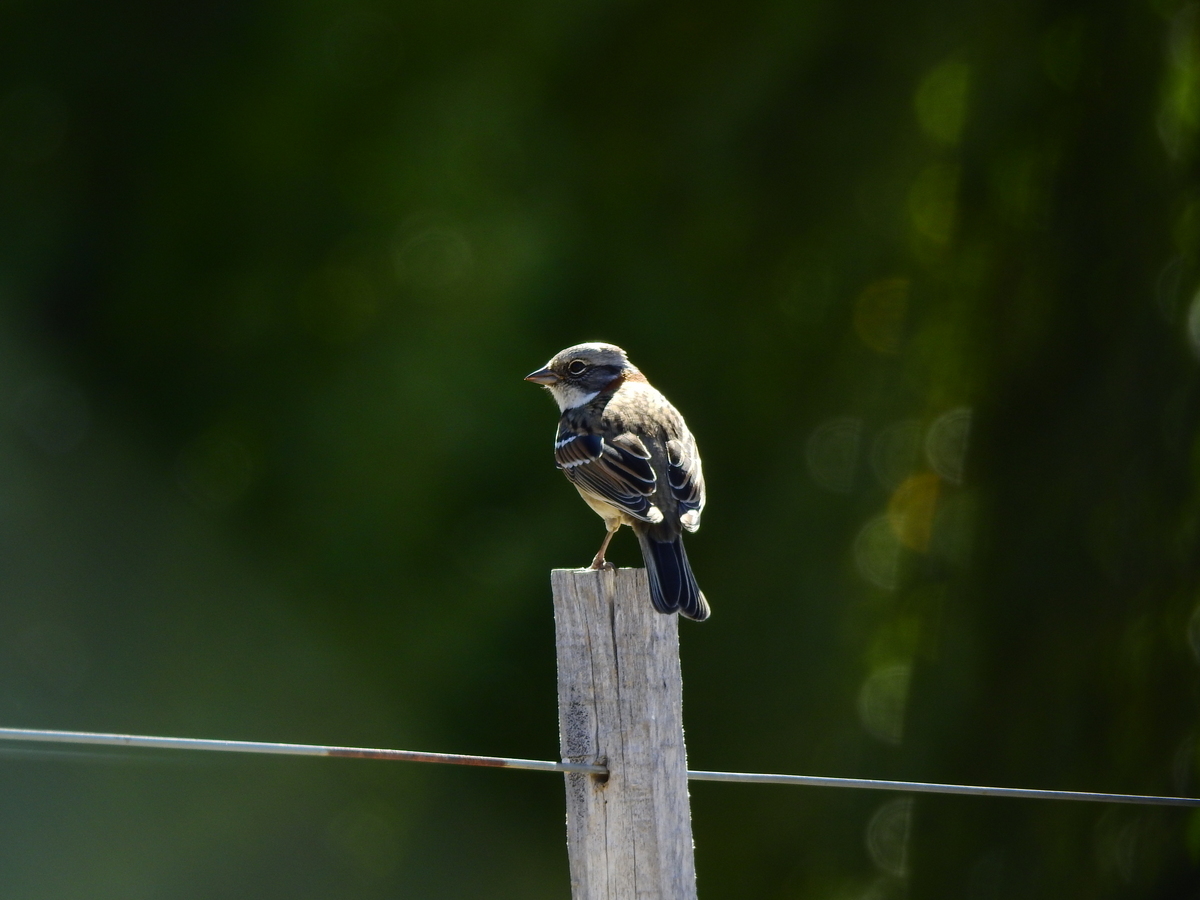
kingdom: Animalia
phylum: Chordata
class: Aves
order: Passeriformes
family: Passerellidae
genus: Zonotrichia
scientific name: Zonotrichia capensis
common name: Rufous-collared sparrow
